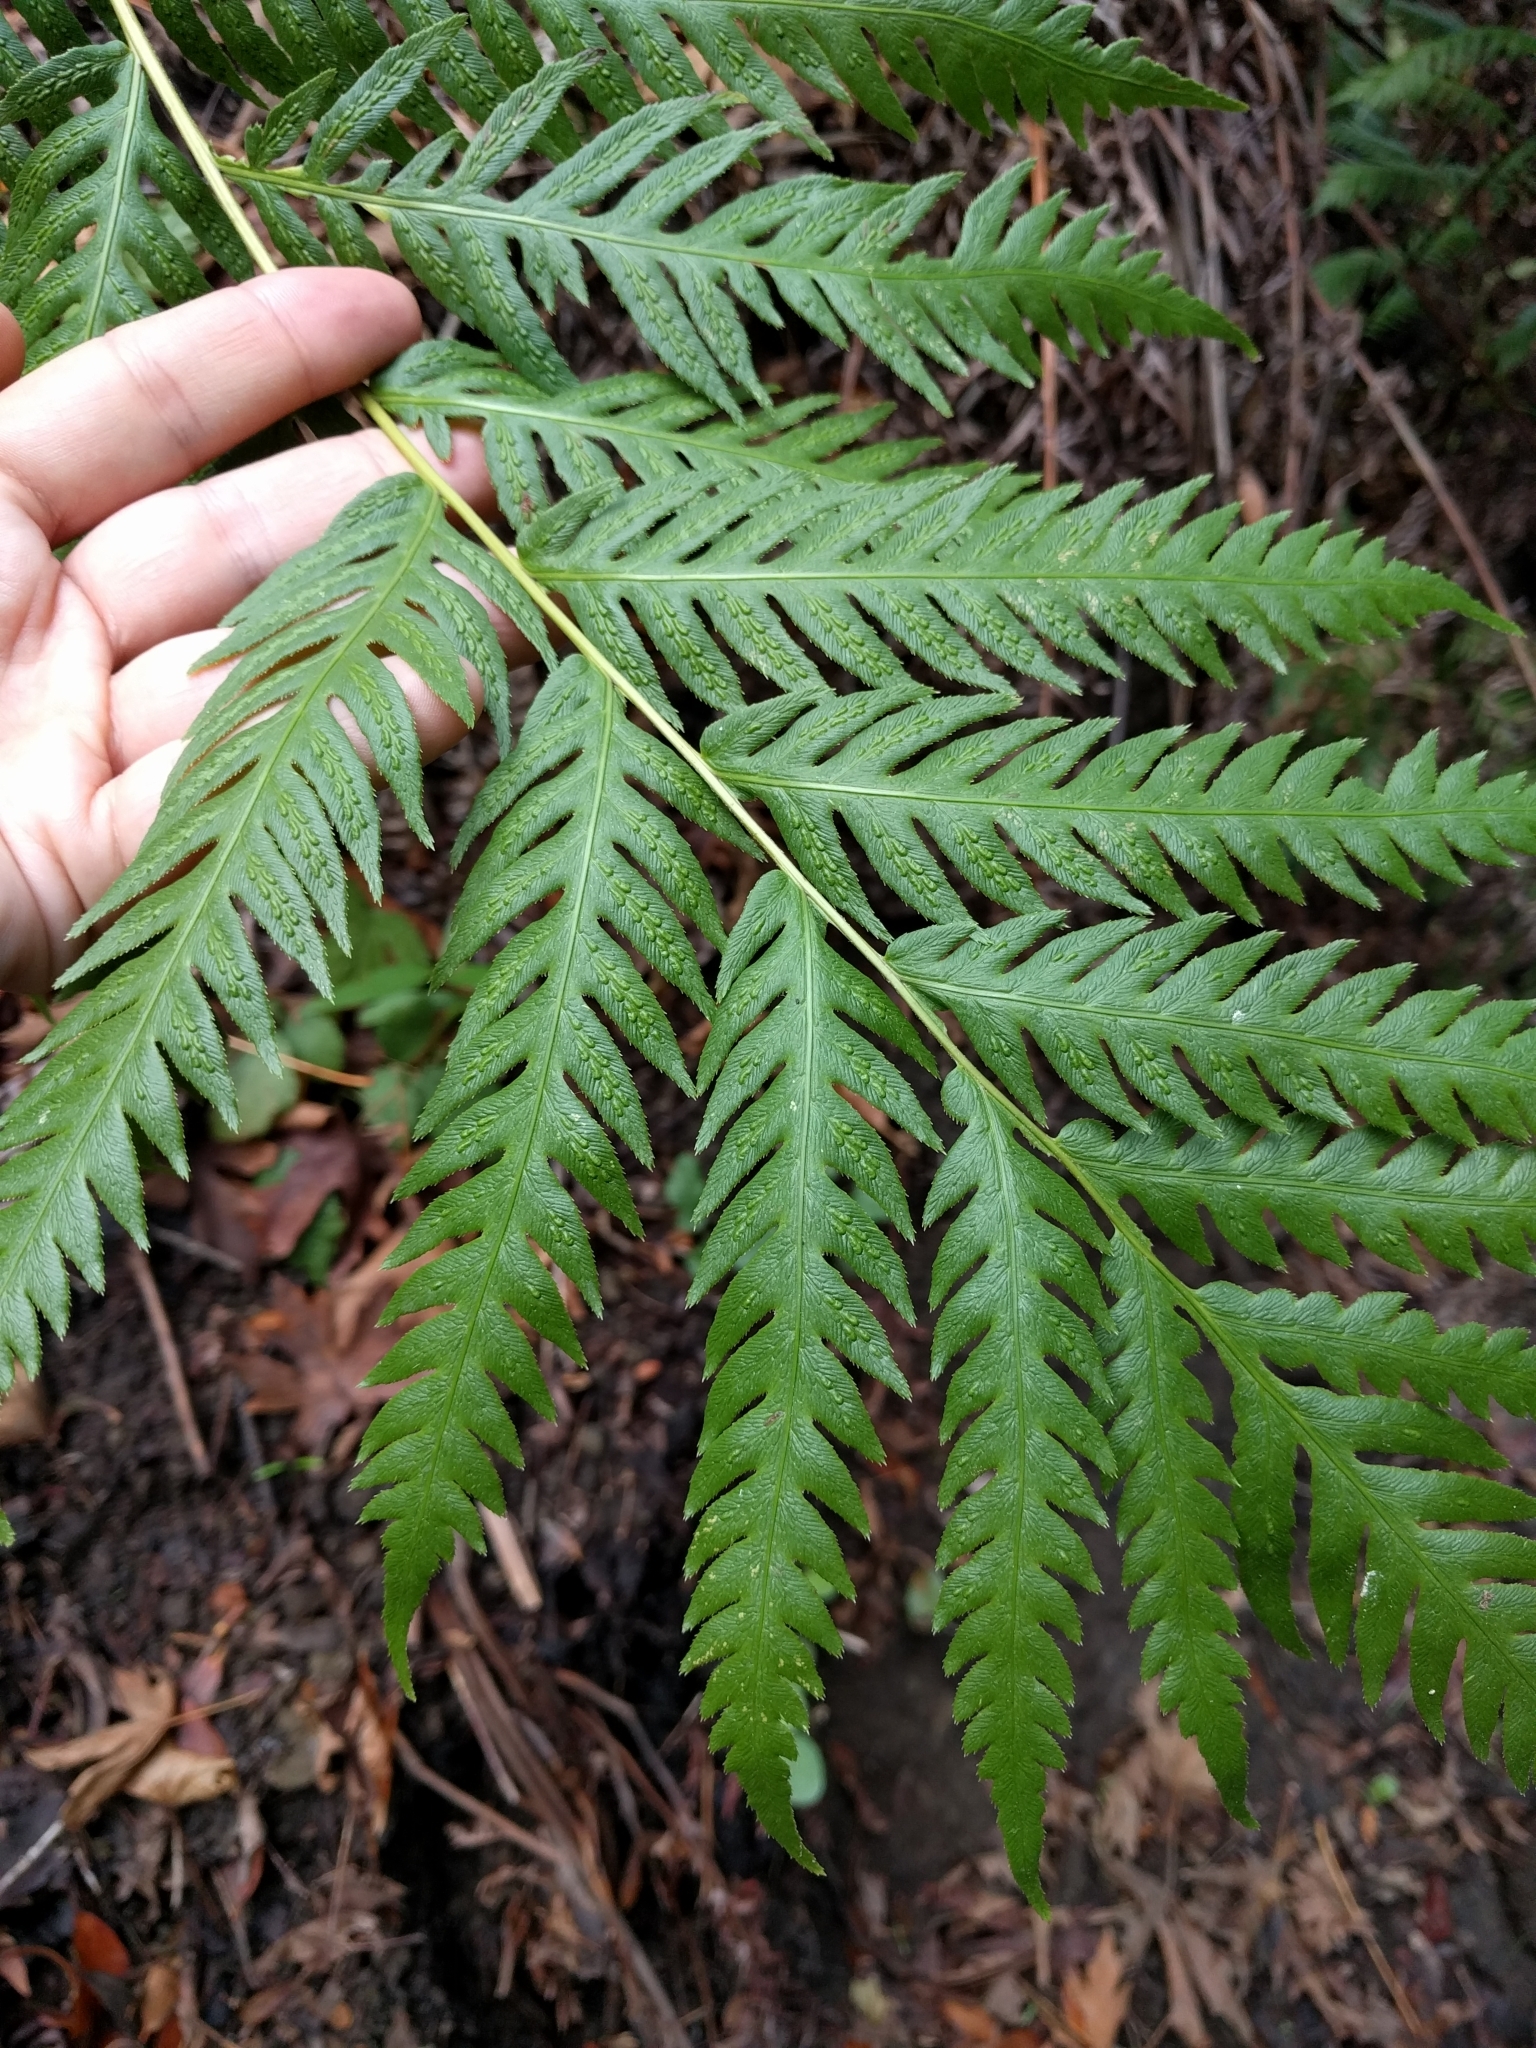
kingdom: Plantae
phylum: Tracheophyta
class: Polypodiopsida
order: Polypodiales
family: Blechnaceae
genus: Woodwardia
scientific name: Woodwardia fimbriata
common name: Giant chain fern
